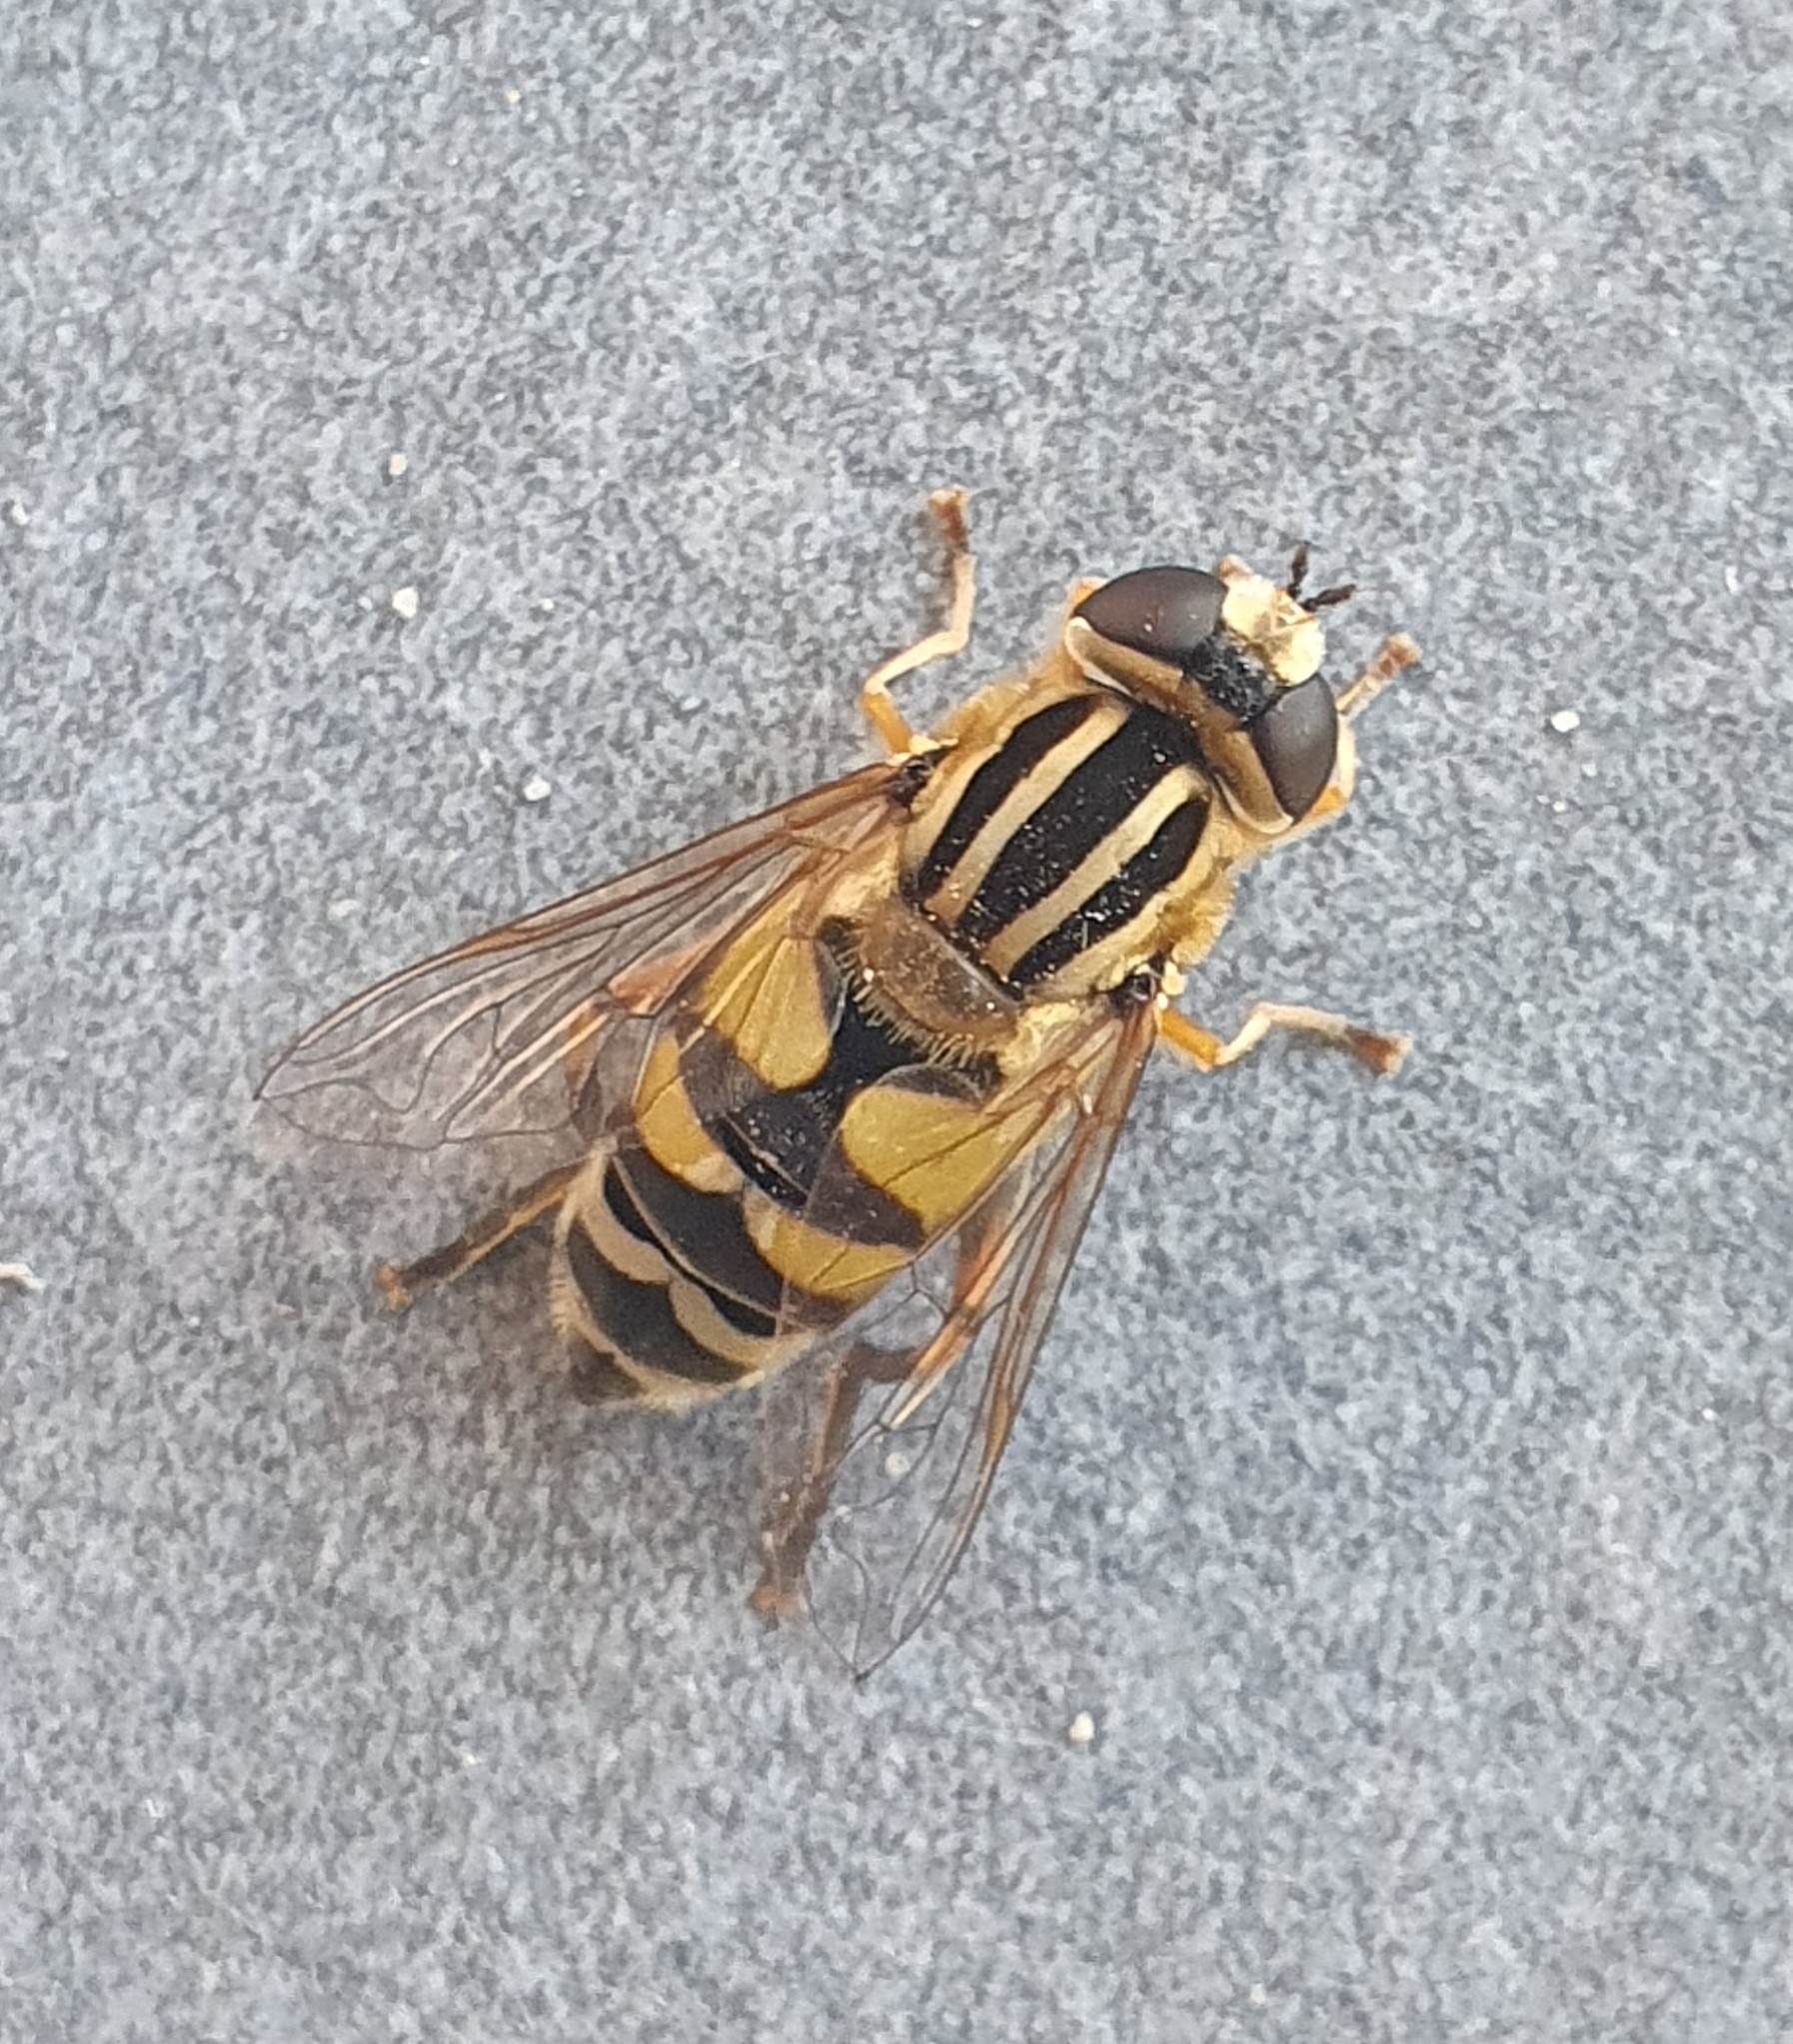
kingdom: Animalia
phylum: Arthropoda
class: Insecta
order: Diptera
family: Syrphidae
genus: Helophilus
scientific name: Helophilus trivittatus
